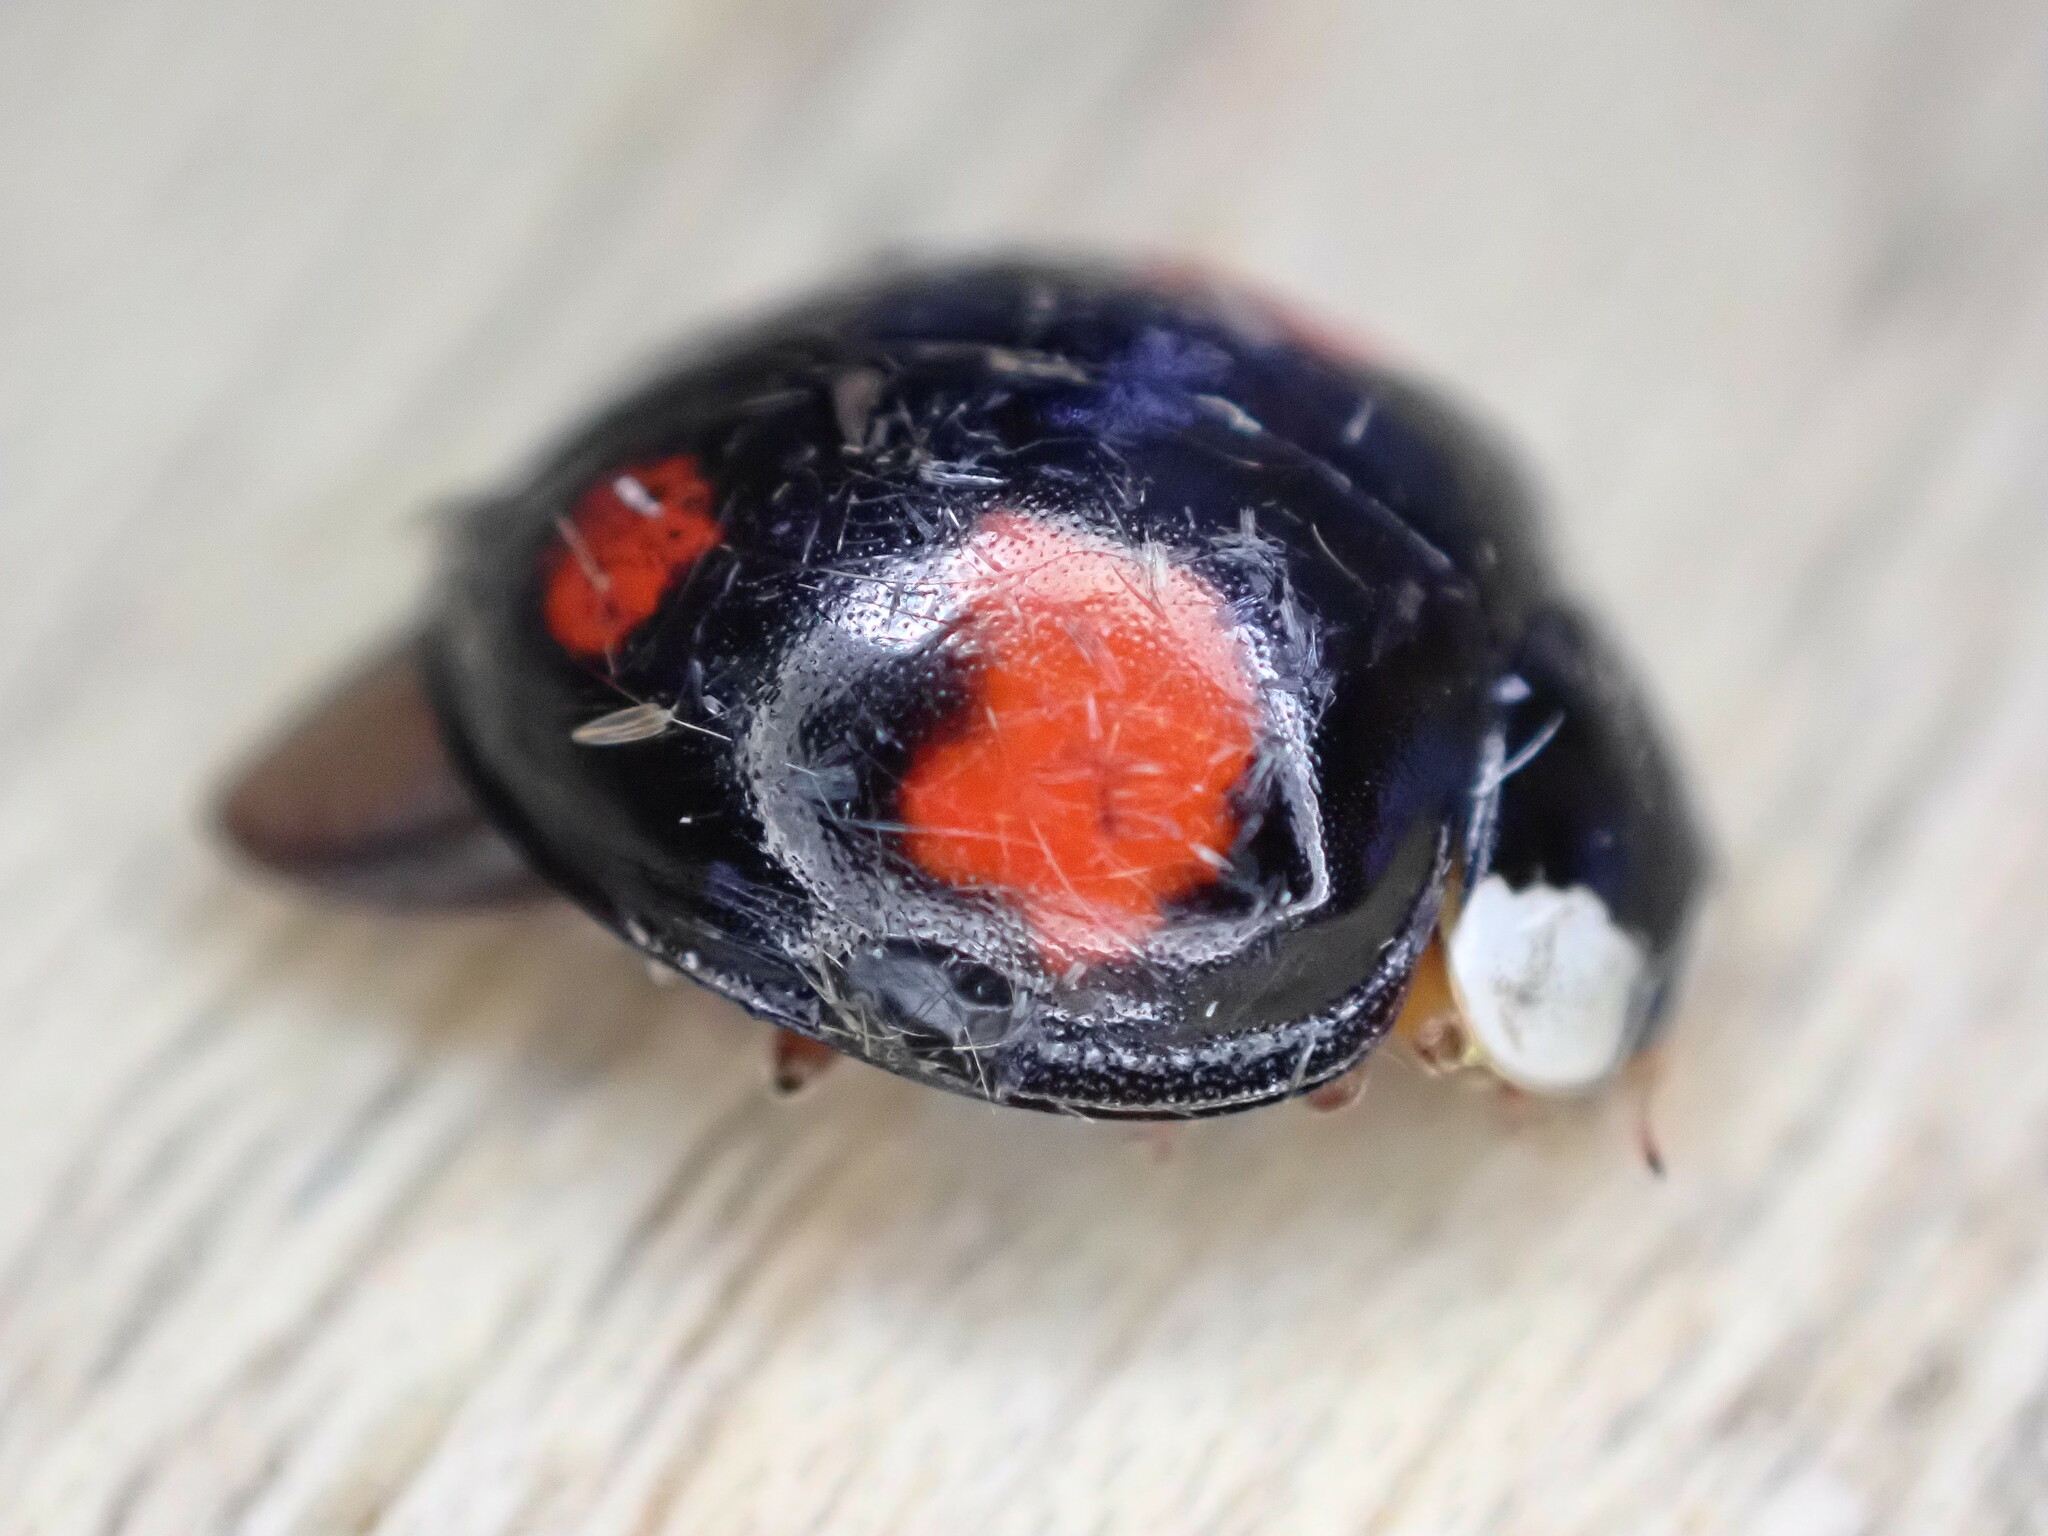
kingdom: Animalia
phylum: Arthropoda
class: Insecta
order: Coleoptera
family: Coccinellidae
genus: Harmonia
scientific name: Harmonia axyridis
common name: Harlequin ladybird
